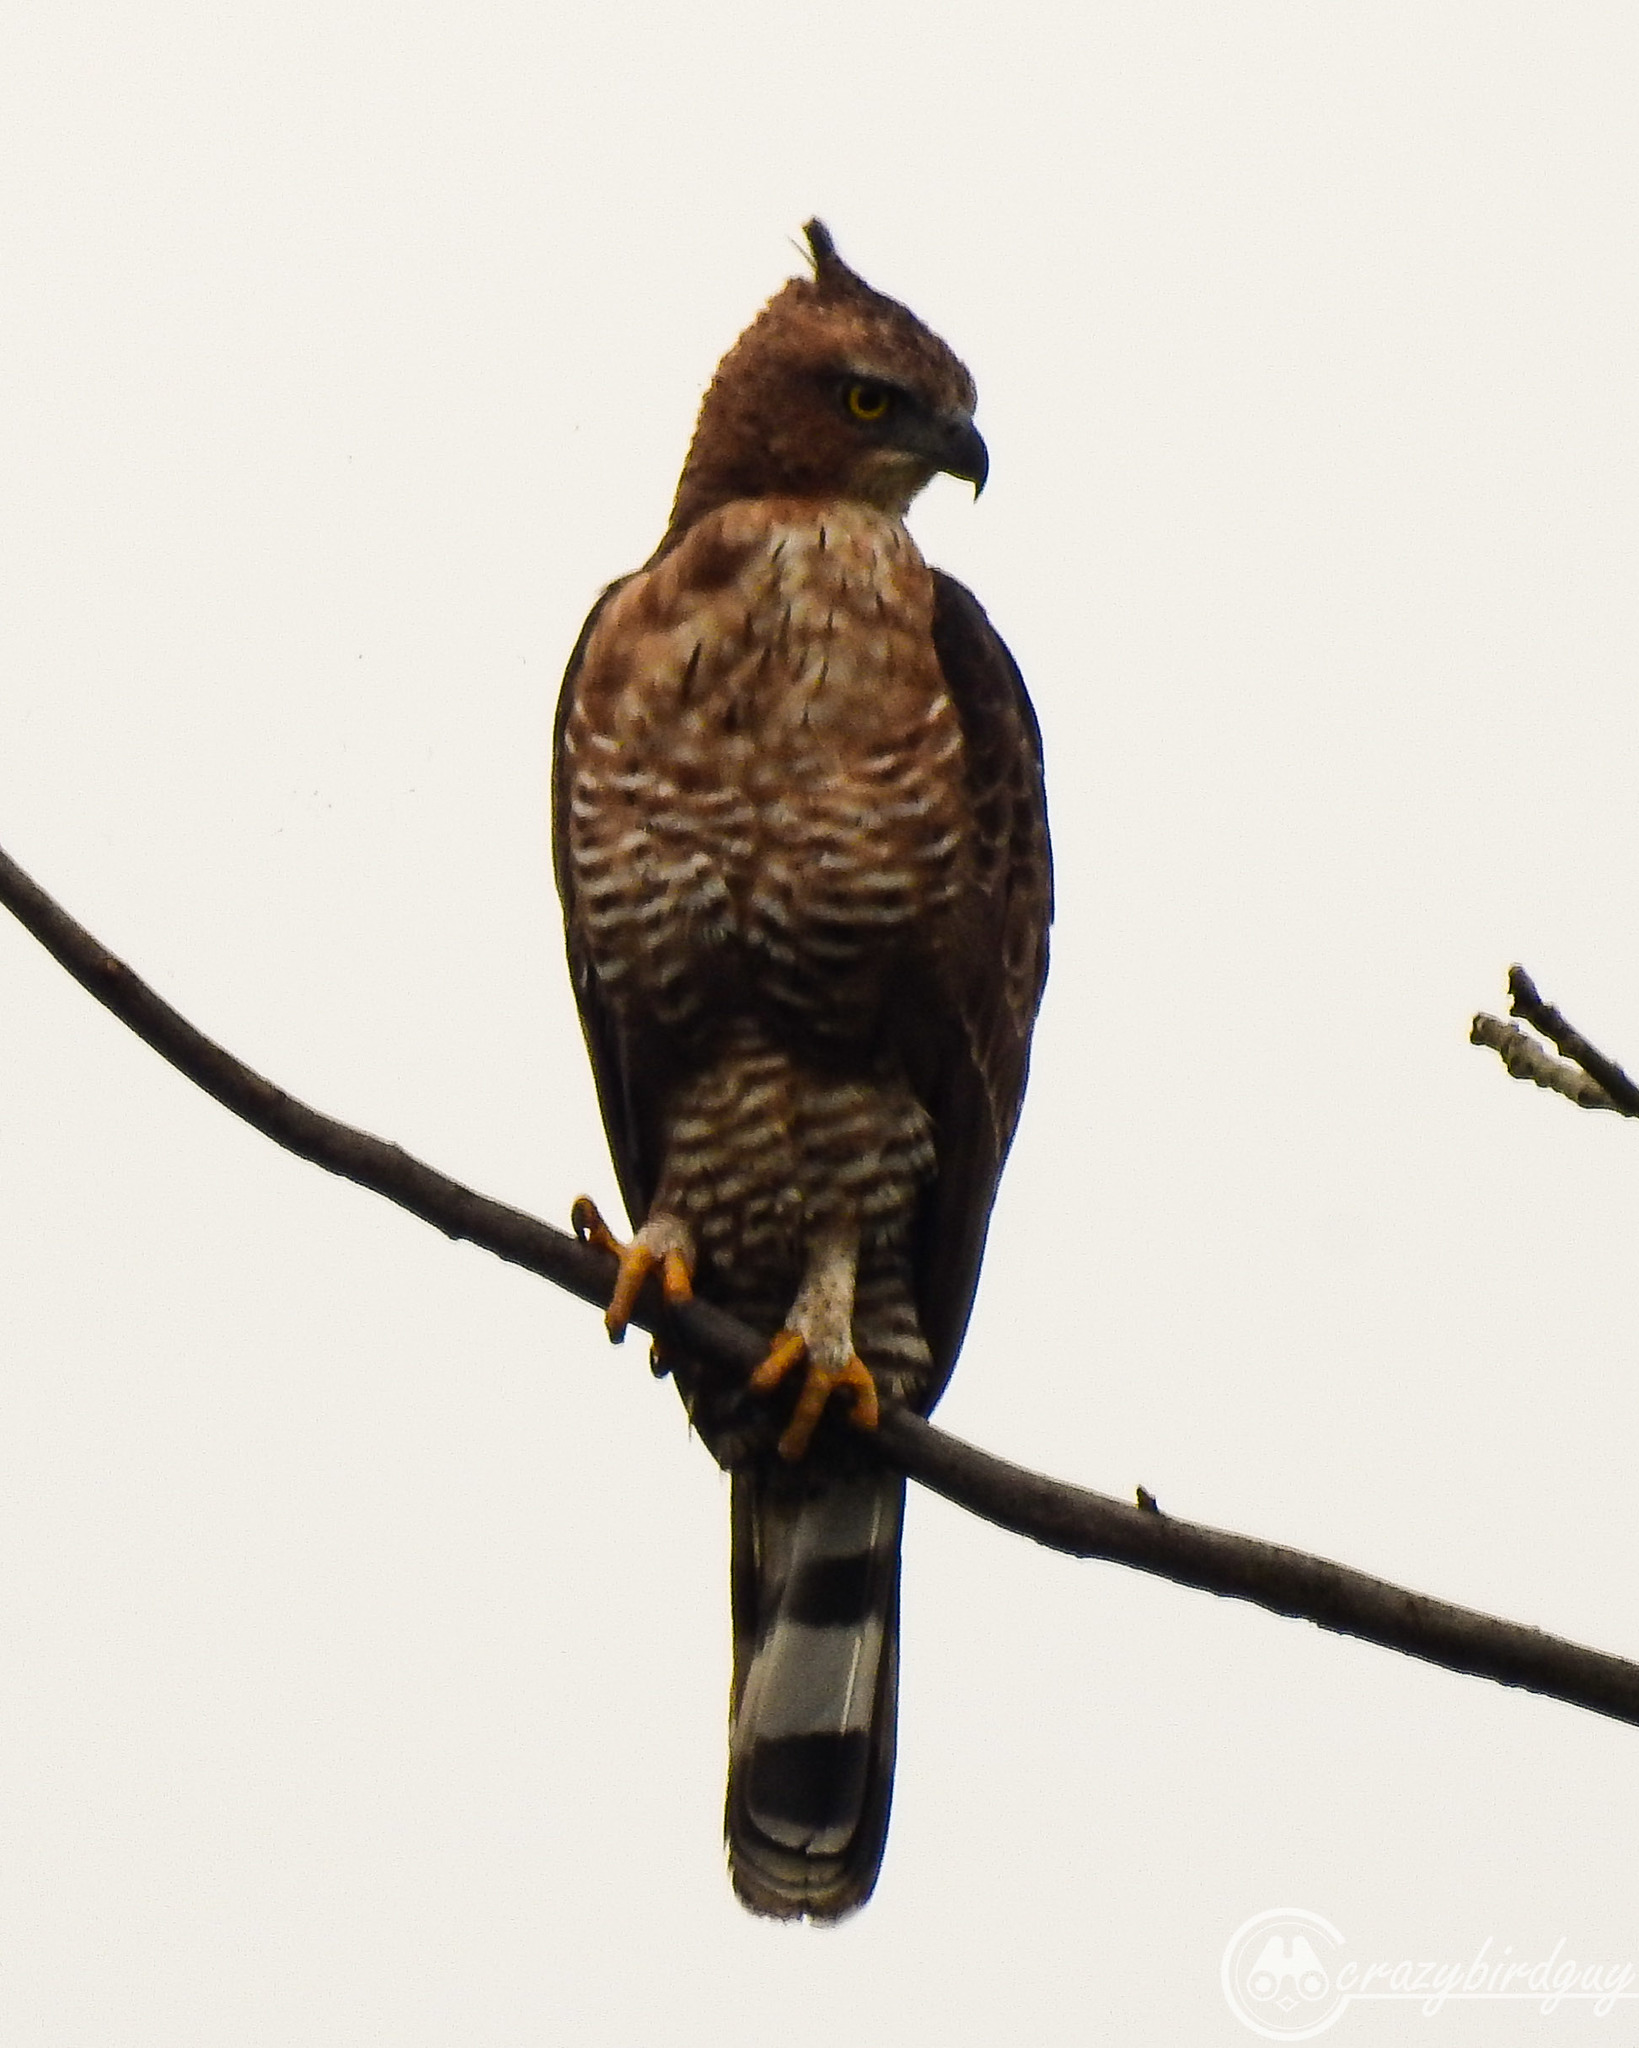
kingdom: Animalia
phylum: Chordata
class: Aves
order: Accipitriformes
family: Accipitridae
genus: Nisaetus
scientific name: Nisaetus nanus
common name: Wallace's hawk-eagle
